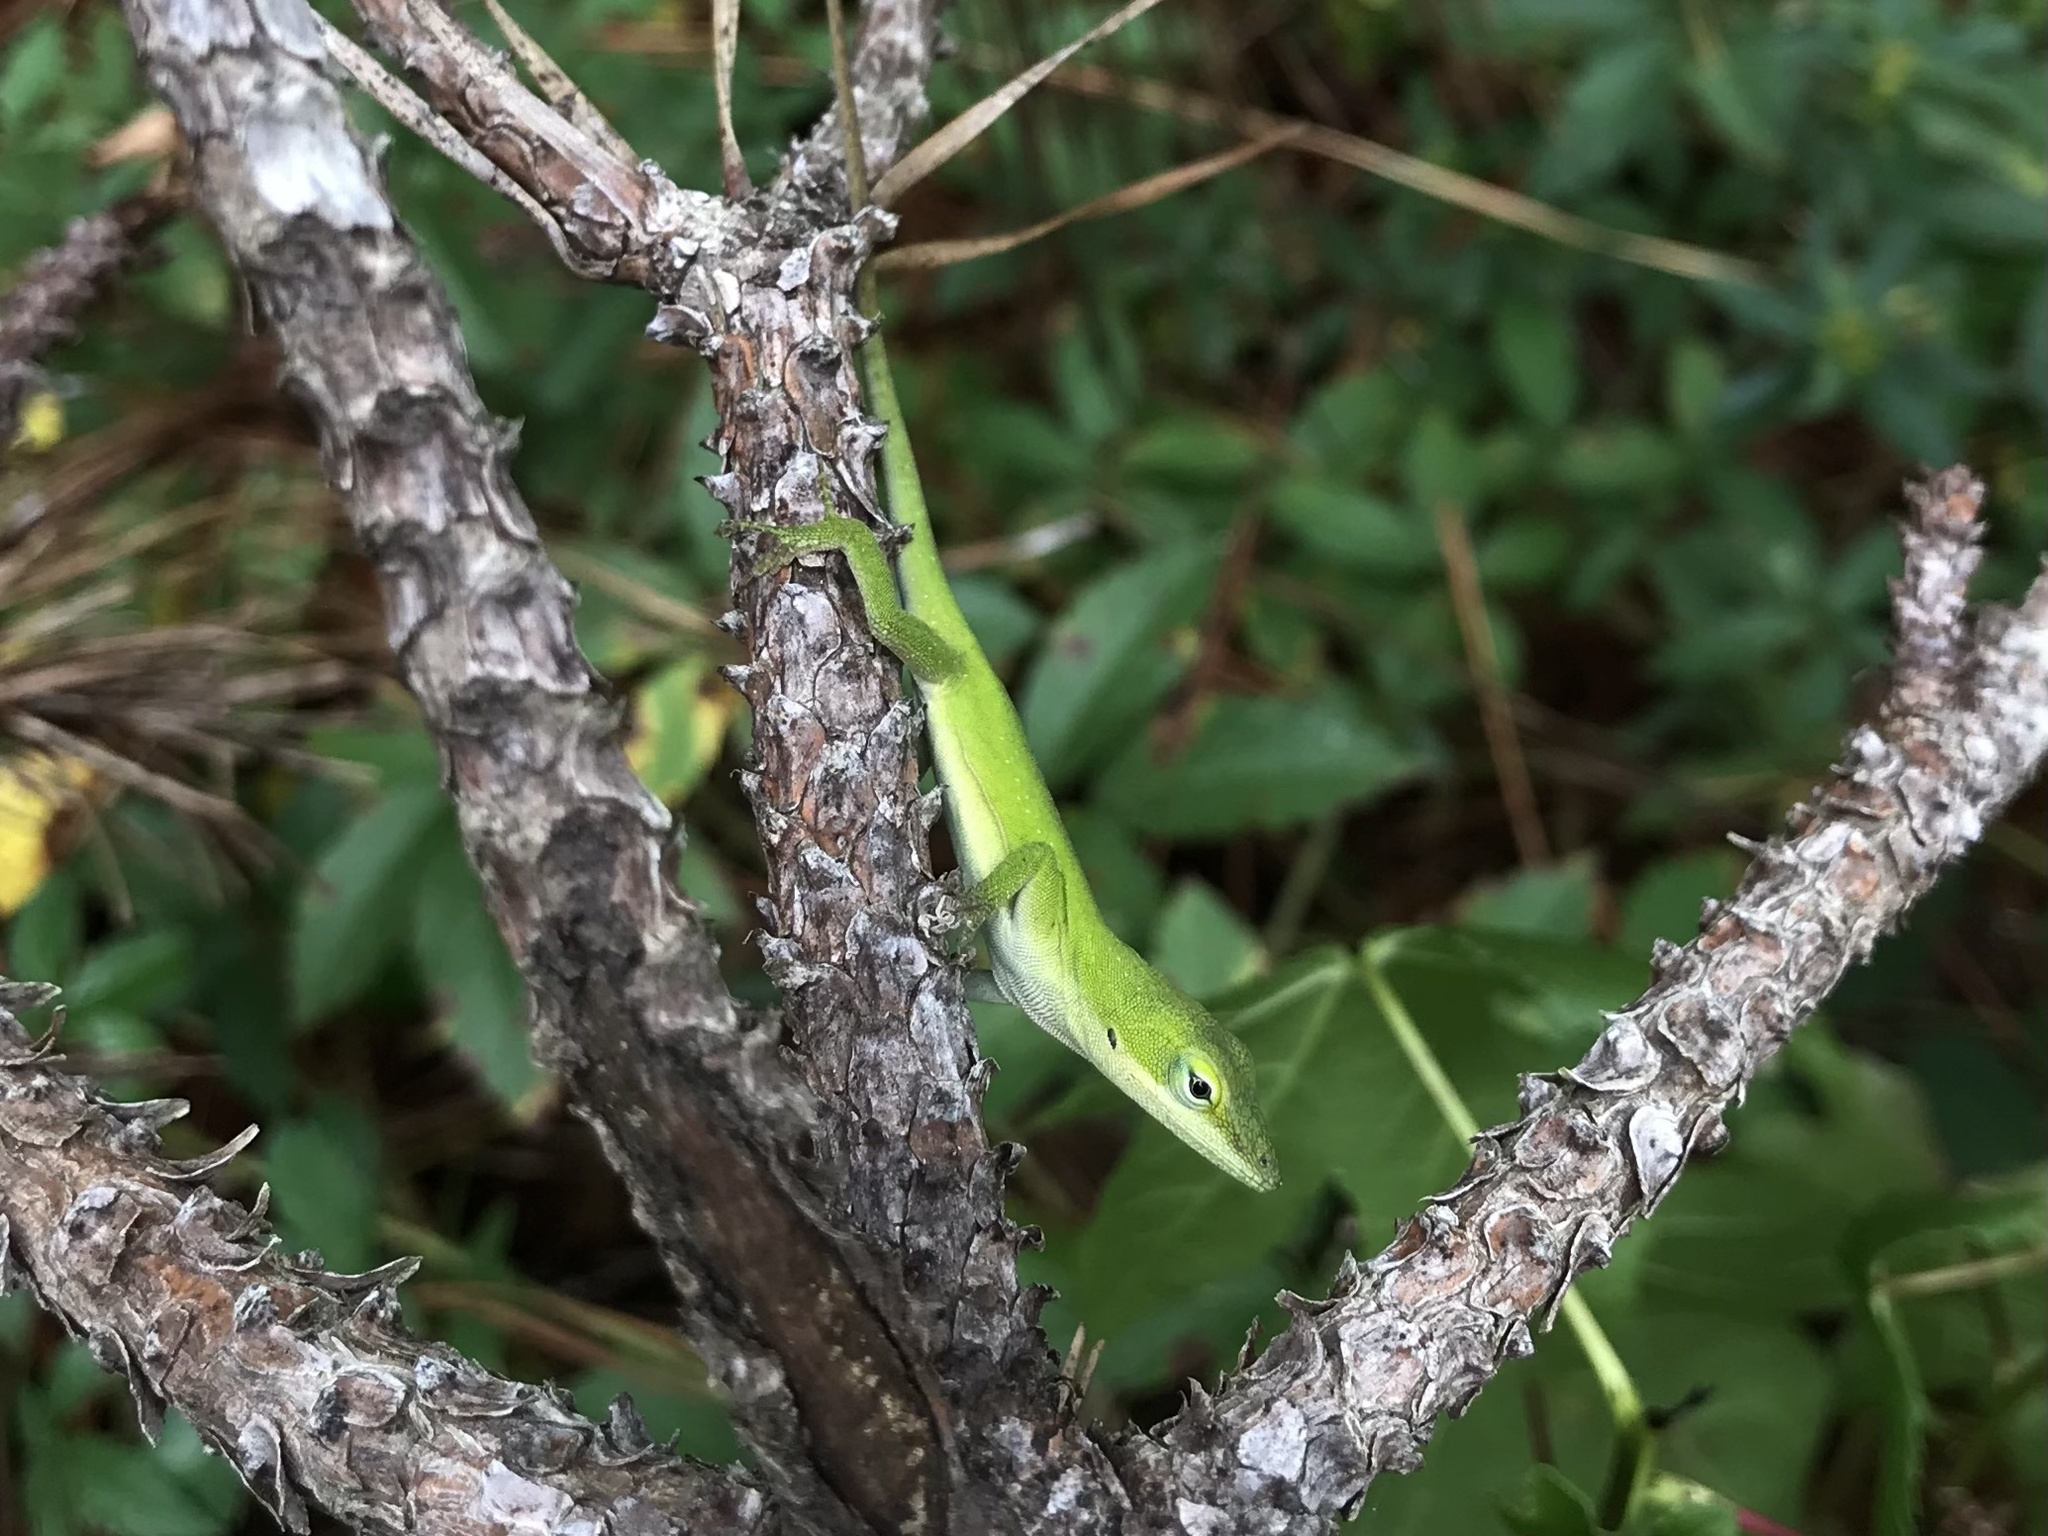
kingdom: Animalia
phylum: Chordata
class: Squamata
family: Dactyloidae
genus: Anolis
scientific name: Anolis carolinensis
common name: Green anole
